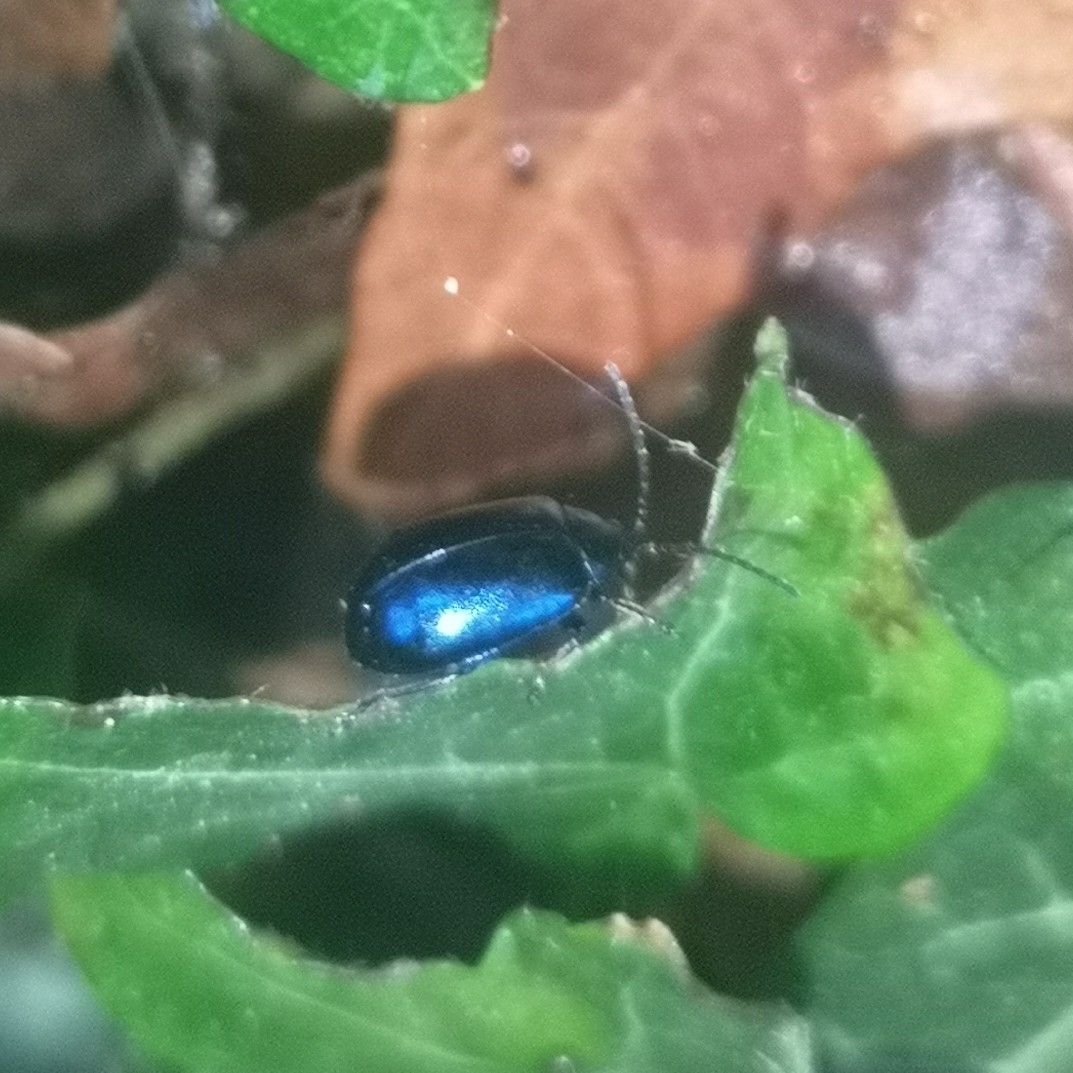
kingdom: Animalia
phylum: Arthropoda
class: Insecta
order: Coleoptera
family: Chrysomelidae
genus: Agelastica
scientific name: Agelastica alni
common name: Alder leaf beetle
